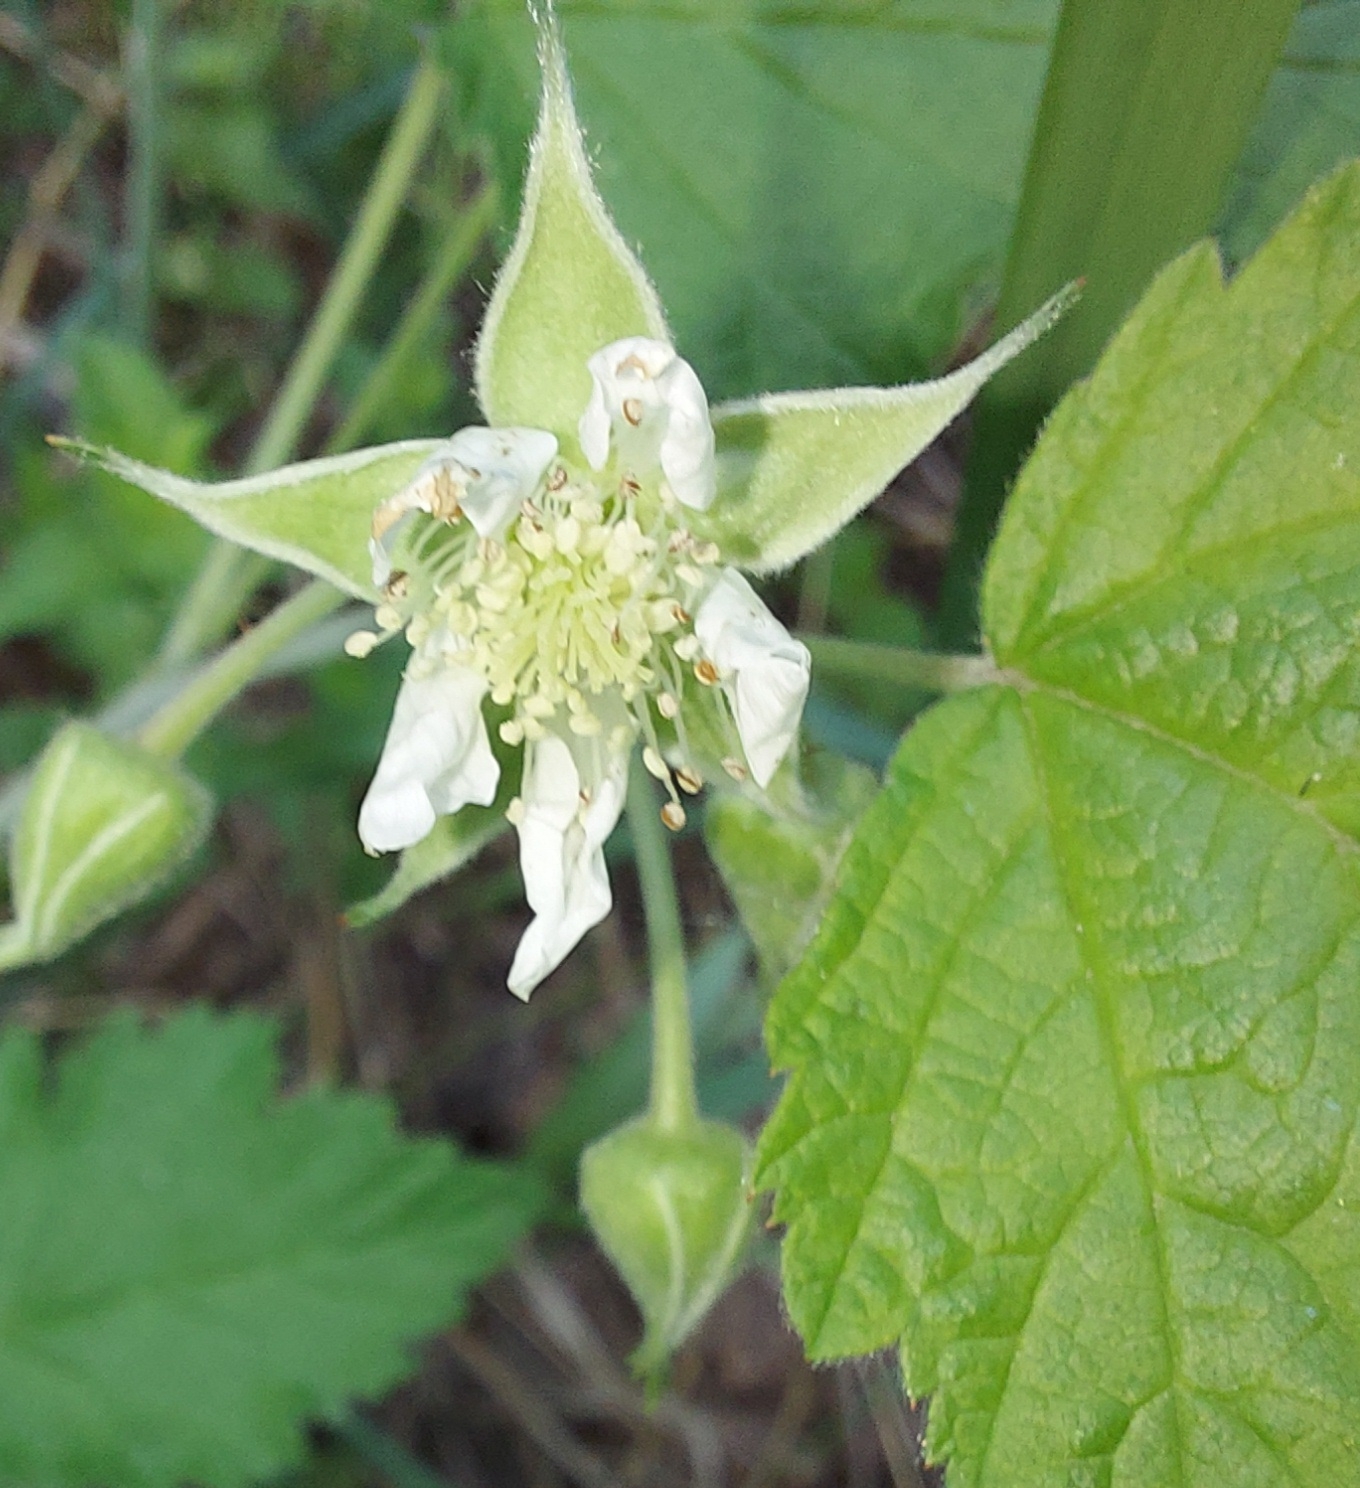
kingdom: Plantae
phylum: Tracheophyta
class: Magnoliopsida
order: Rosales
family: Rosaceae
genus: Rubus
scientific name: Rubus idaeus
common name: Raspberry
